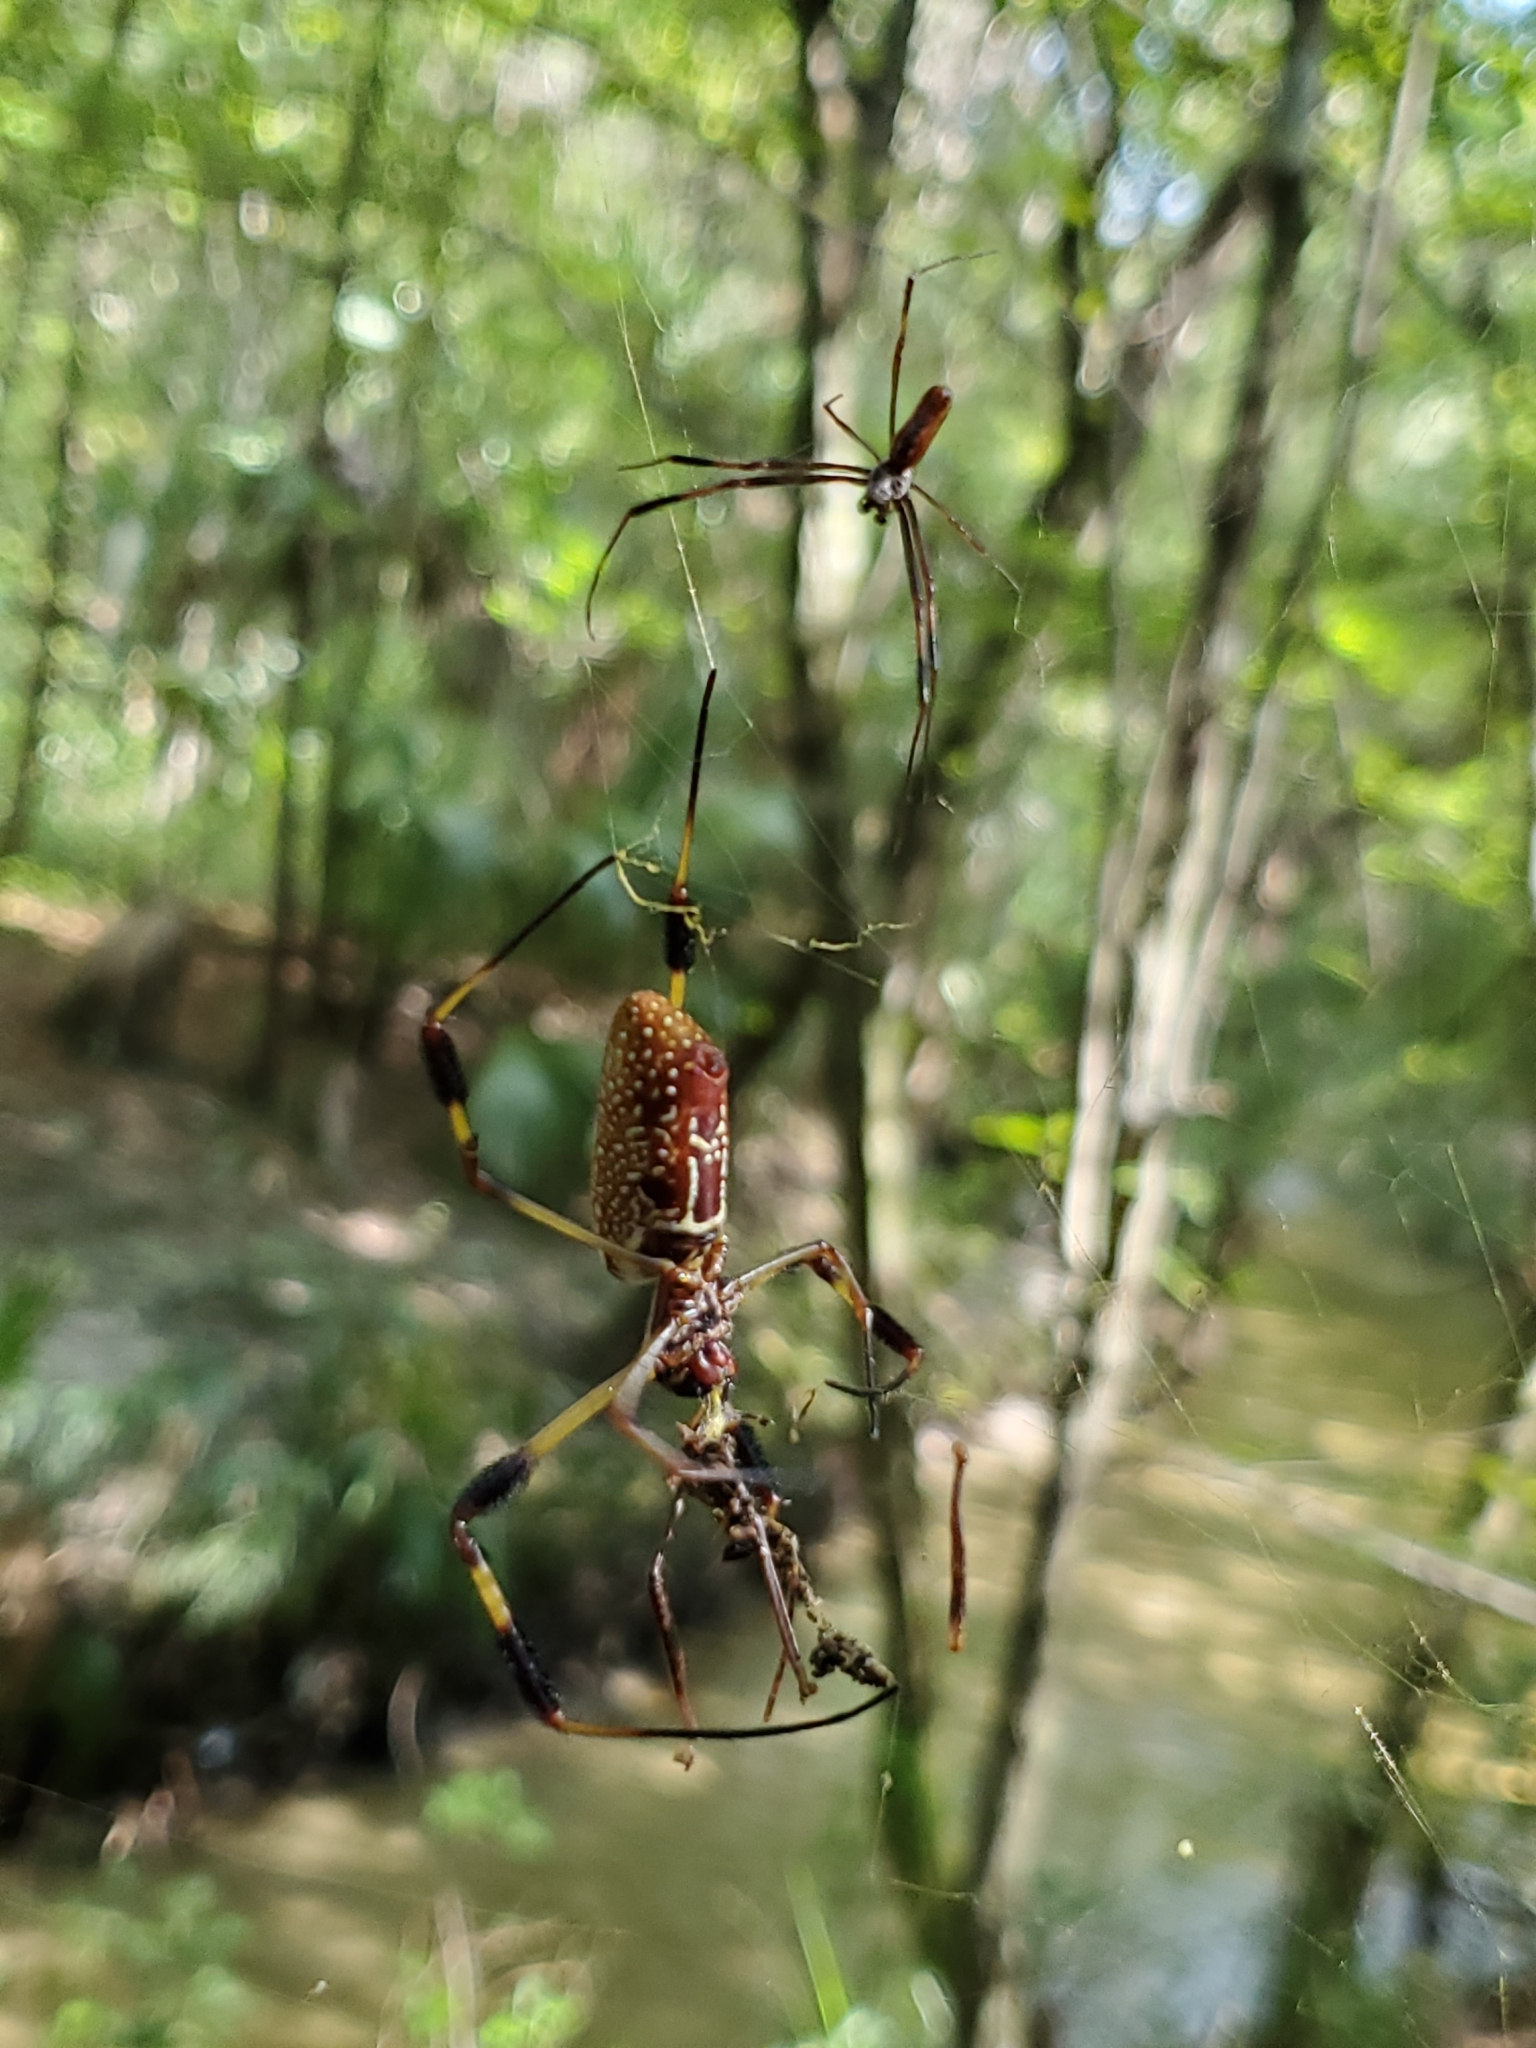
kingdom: Animalia
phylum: Arthropoda
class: Arachnida
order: Araneae
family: Araneidae
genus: Trichonephila
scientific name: Trichonephila clavipes
